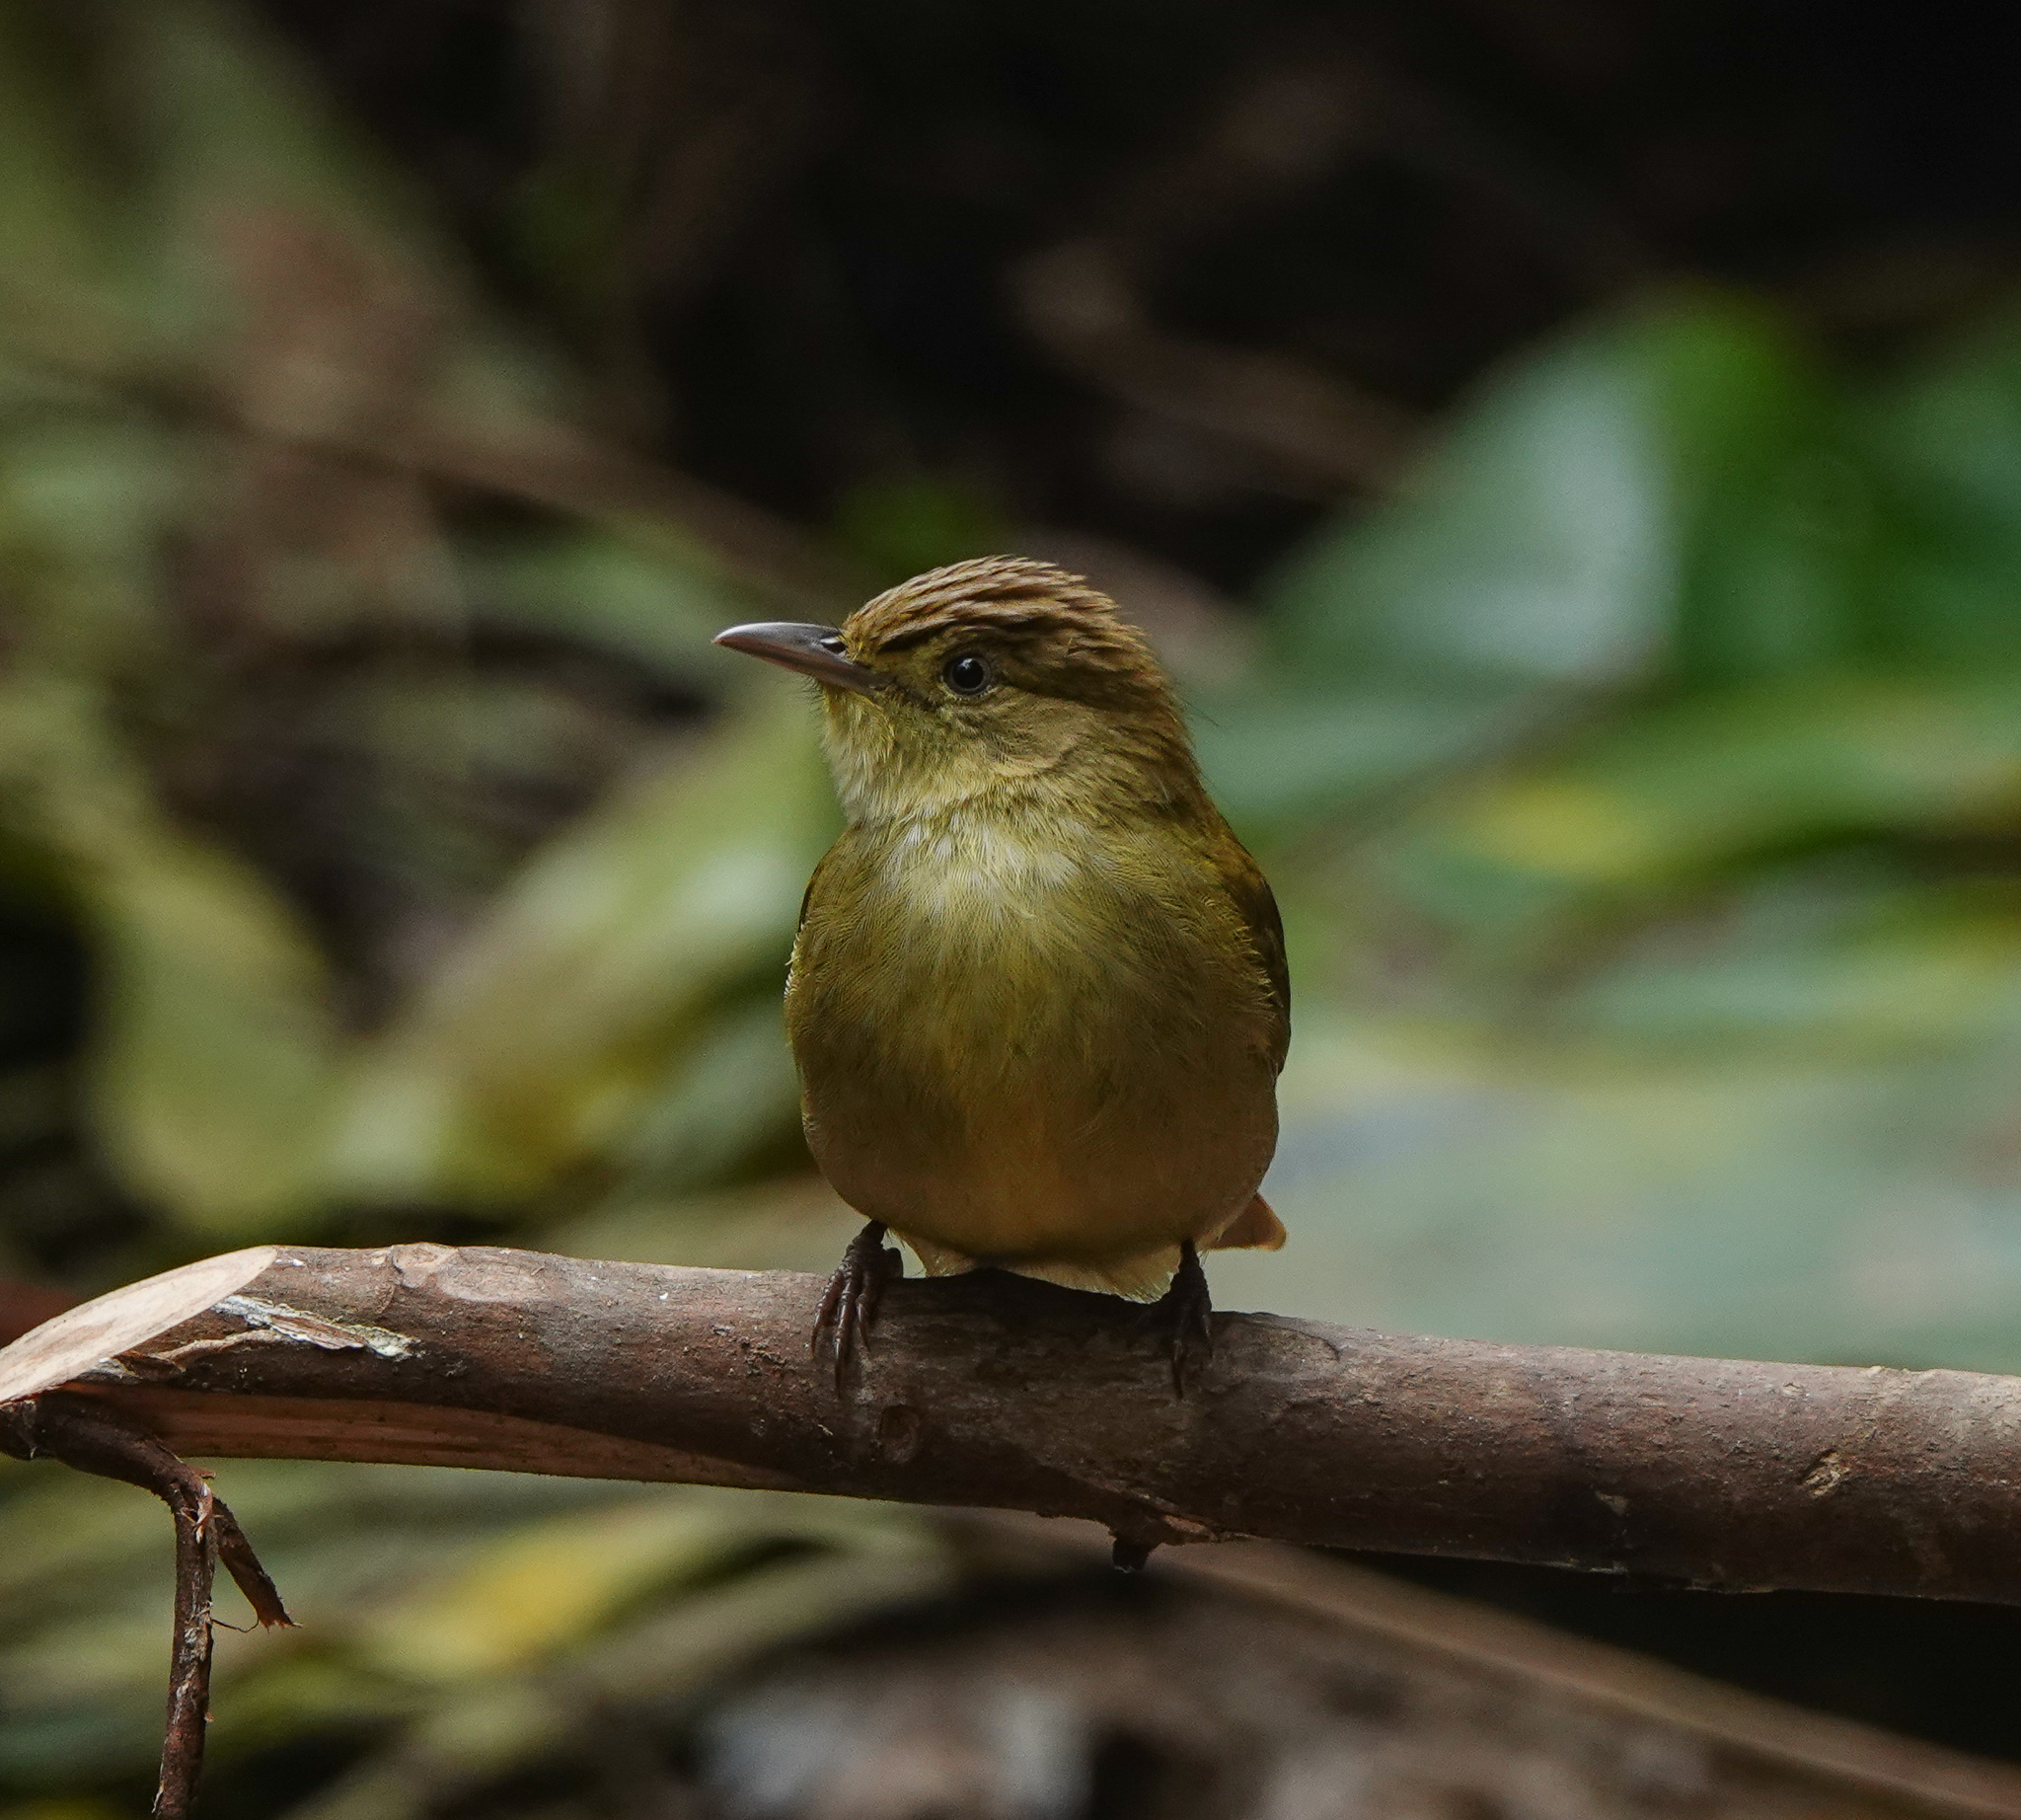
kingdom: Animalia
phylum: Chordata
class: Aves
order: Passeriformes
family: Pycnonotidae
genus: Iole
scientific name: Iole virescens
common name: Olive bulbul
